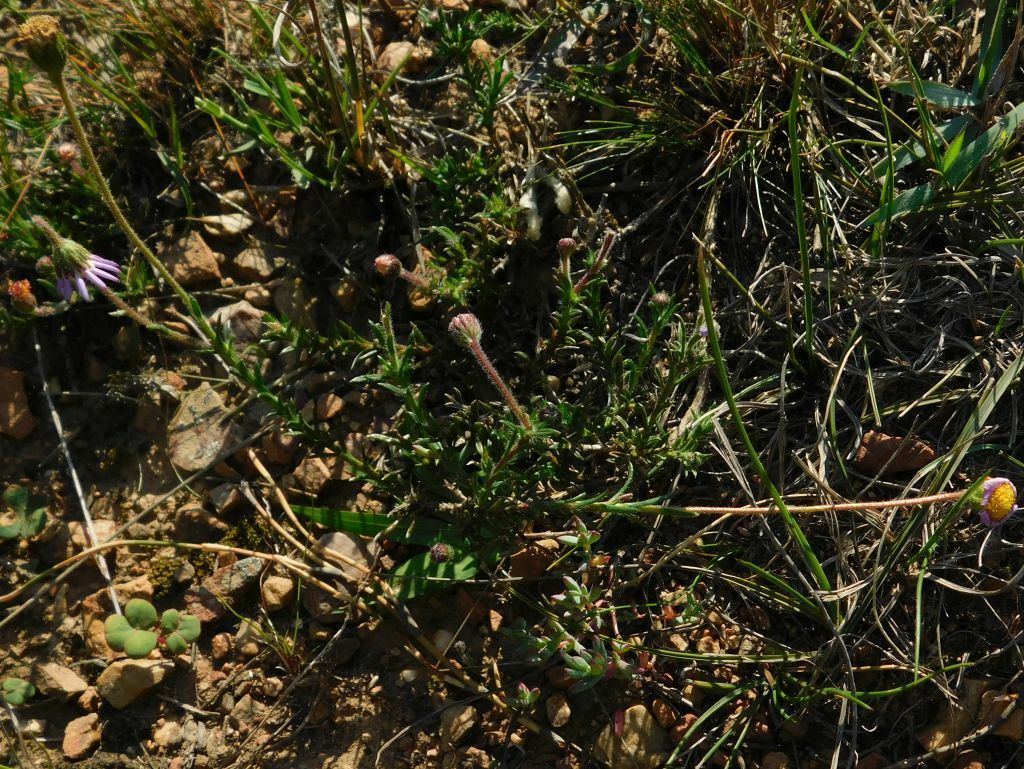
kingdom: Plantae
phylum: Tracheophyta
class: Magnoliopsida
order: Asterales
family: Asteraceae
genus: Felicia
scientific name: Felicia tenella
